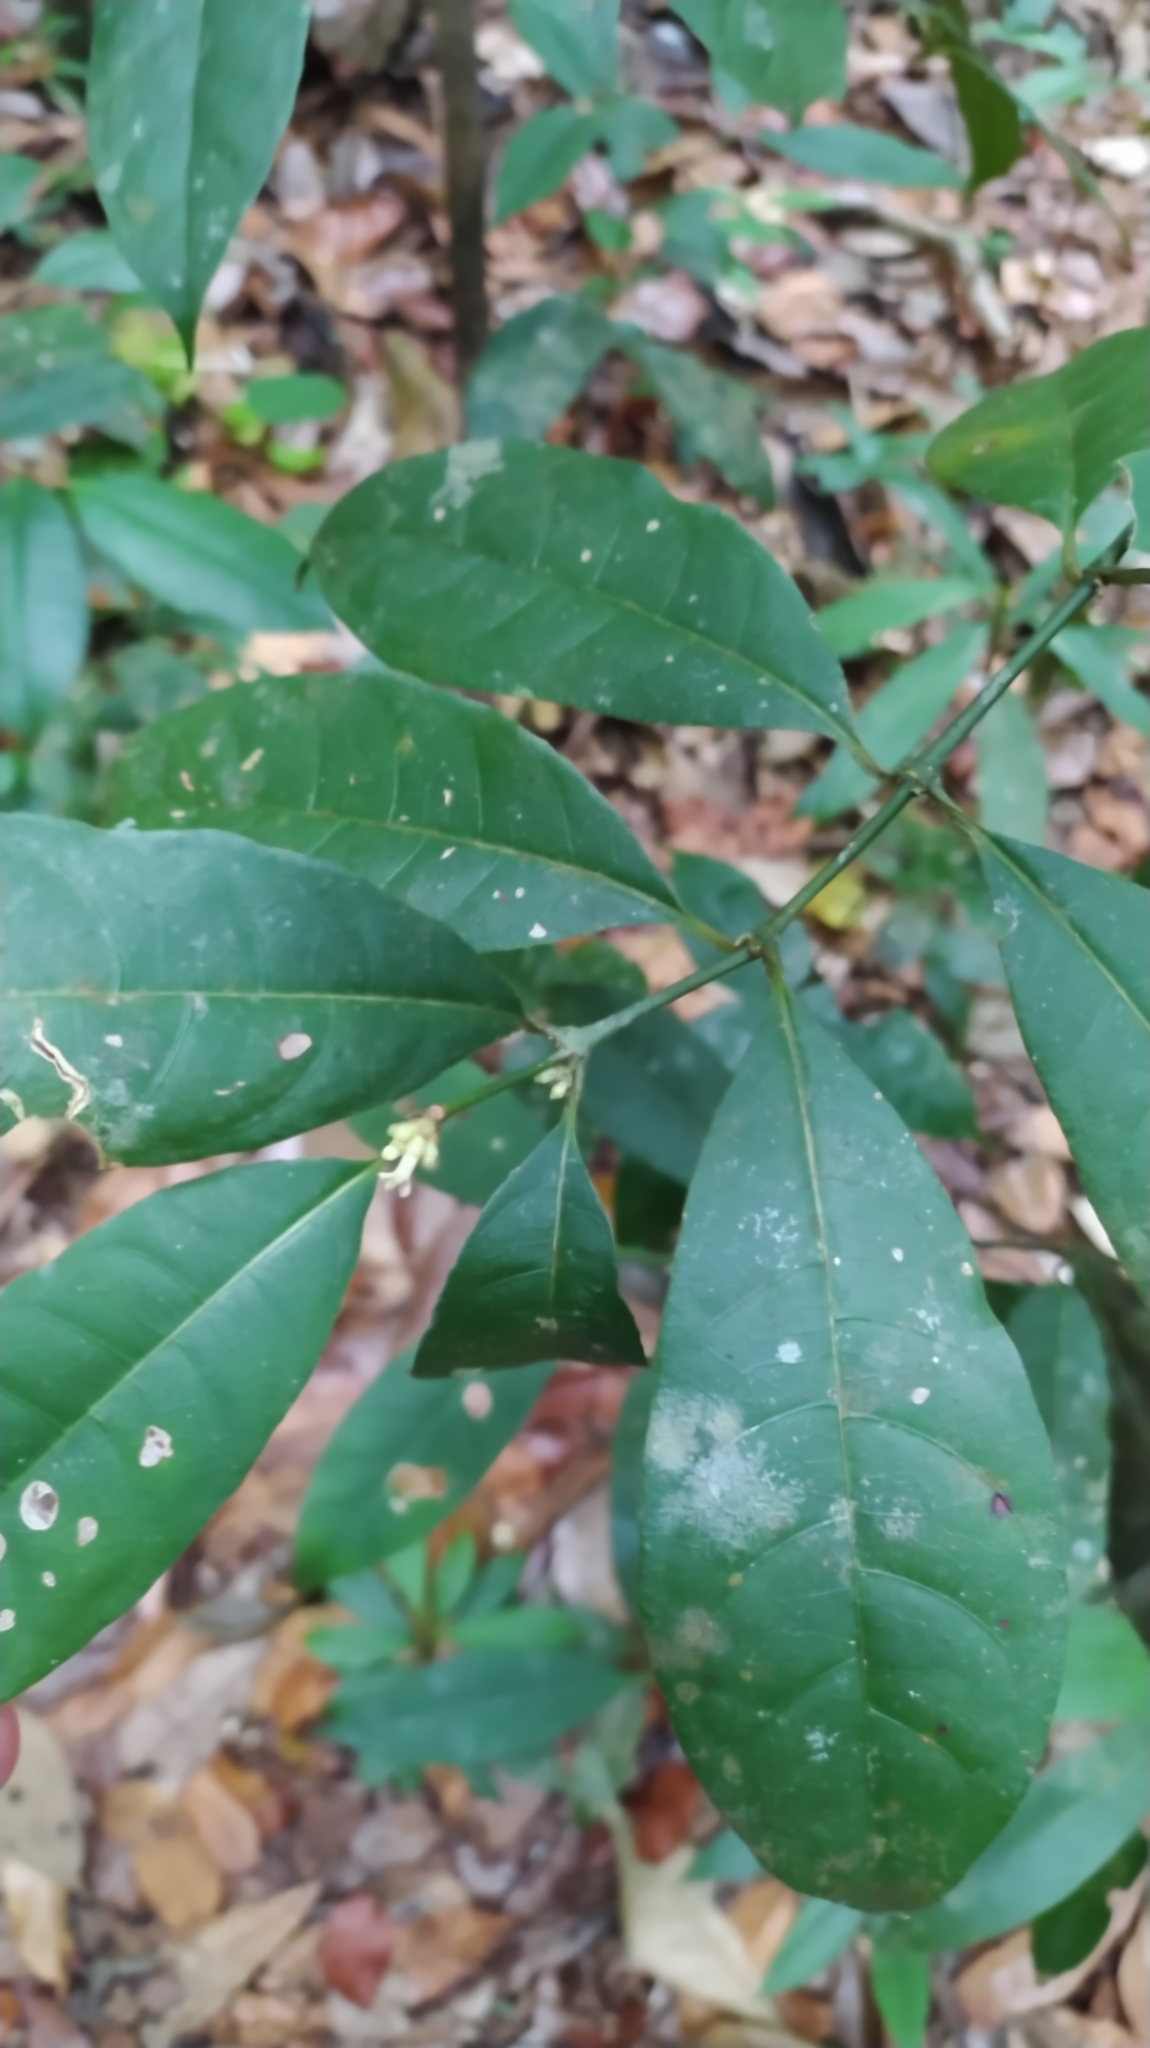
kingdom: Plantae
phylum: Tracheophyta
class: Magnoliopsida
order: Gentianales
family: Rubiaceae
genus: Ronabea
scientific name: Ronabea latifolia
